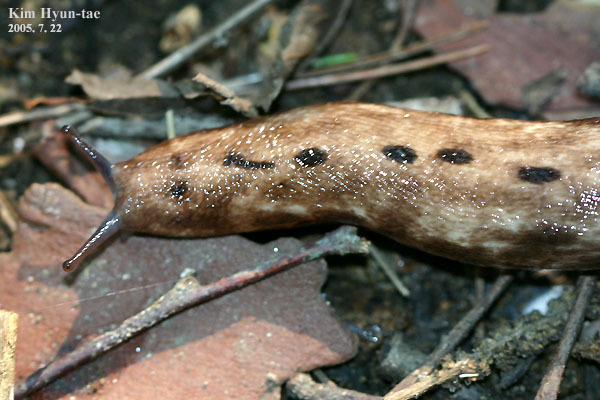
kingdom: Animalia
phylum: Mollusca
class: Gastropoda
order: Stylommatophora
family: Philomycidae
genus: Meghimatium
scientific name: Meghimatium fruhstorferi
